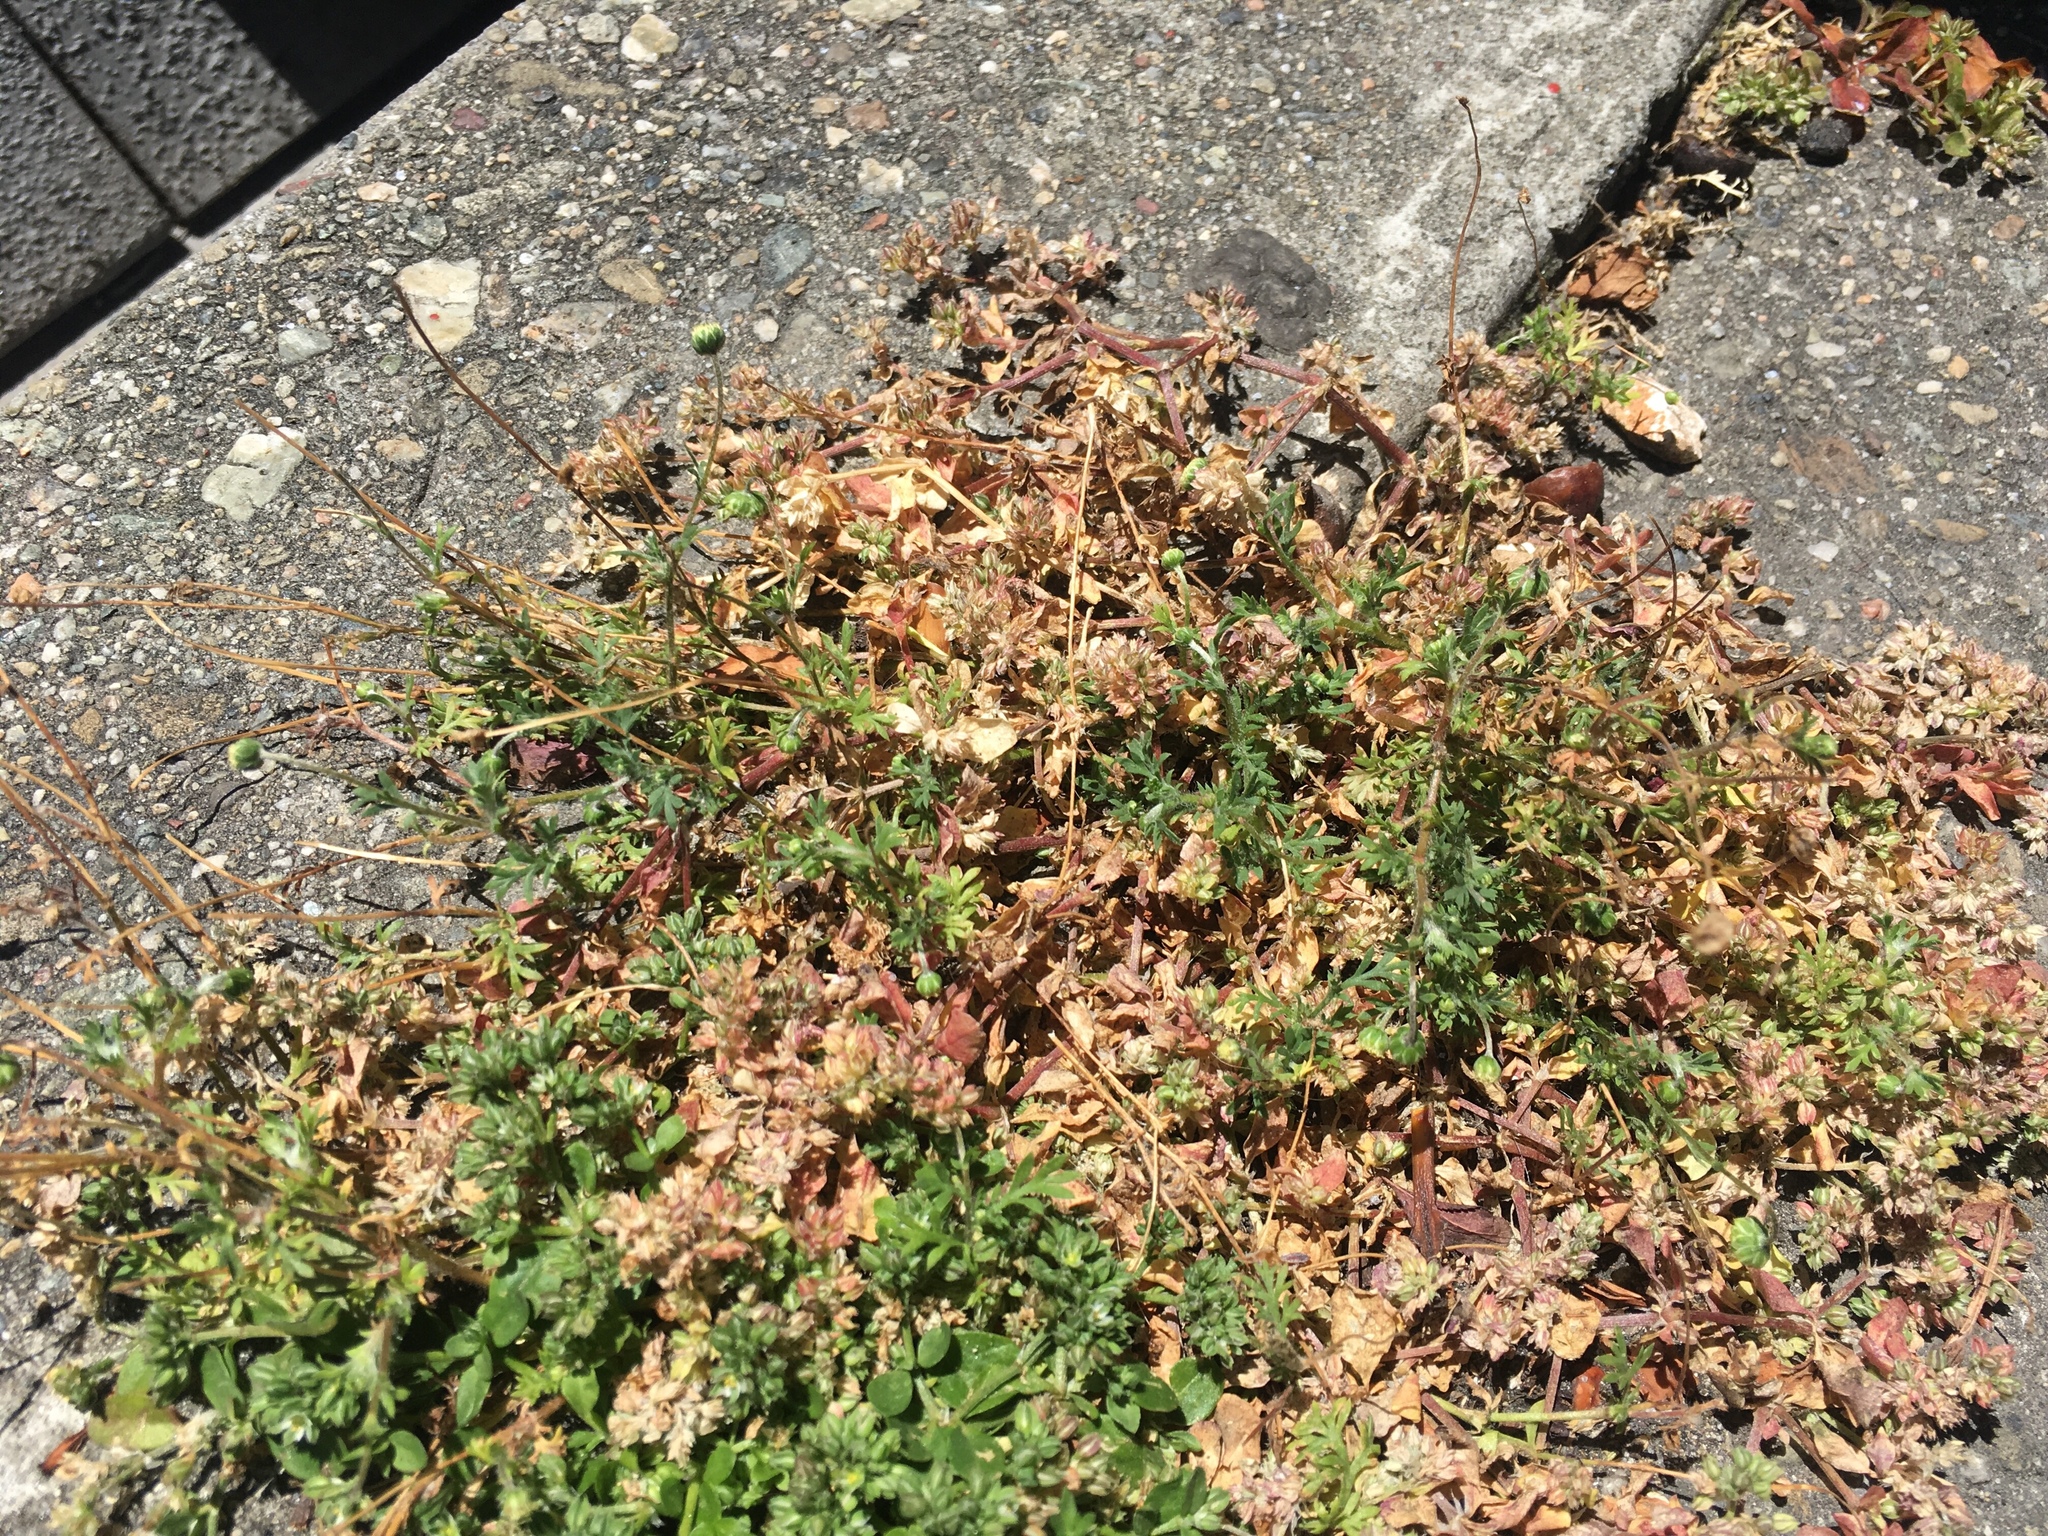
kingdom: Plantae
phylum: Tracheophyta
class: Magnoliopsida
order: Asterales
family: Asteraceae
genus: Cotula
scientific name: Cotula australis
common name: Australian waterbuttons
